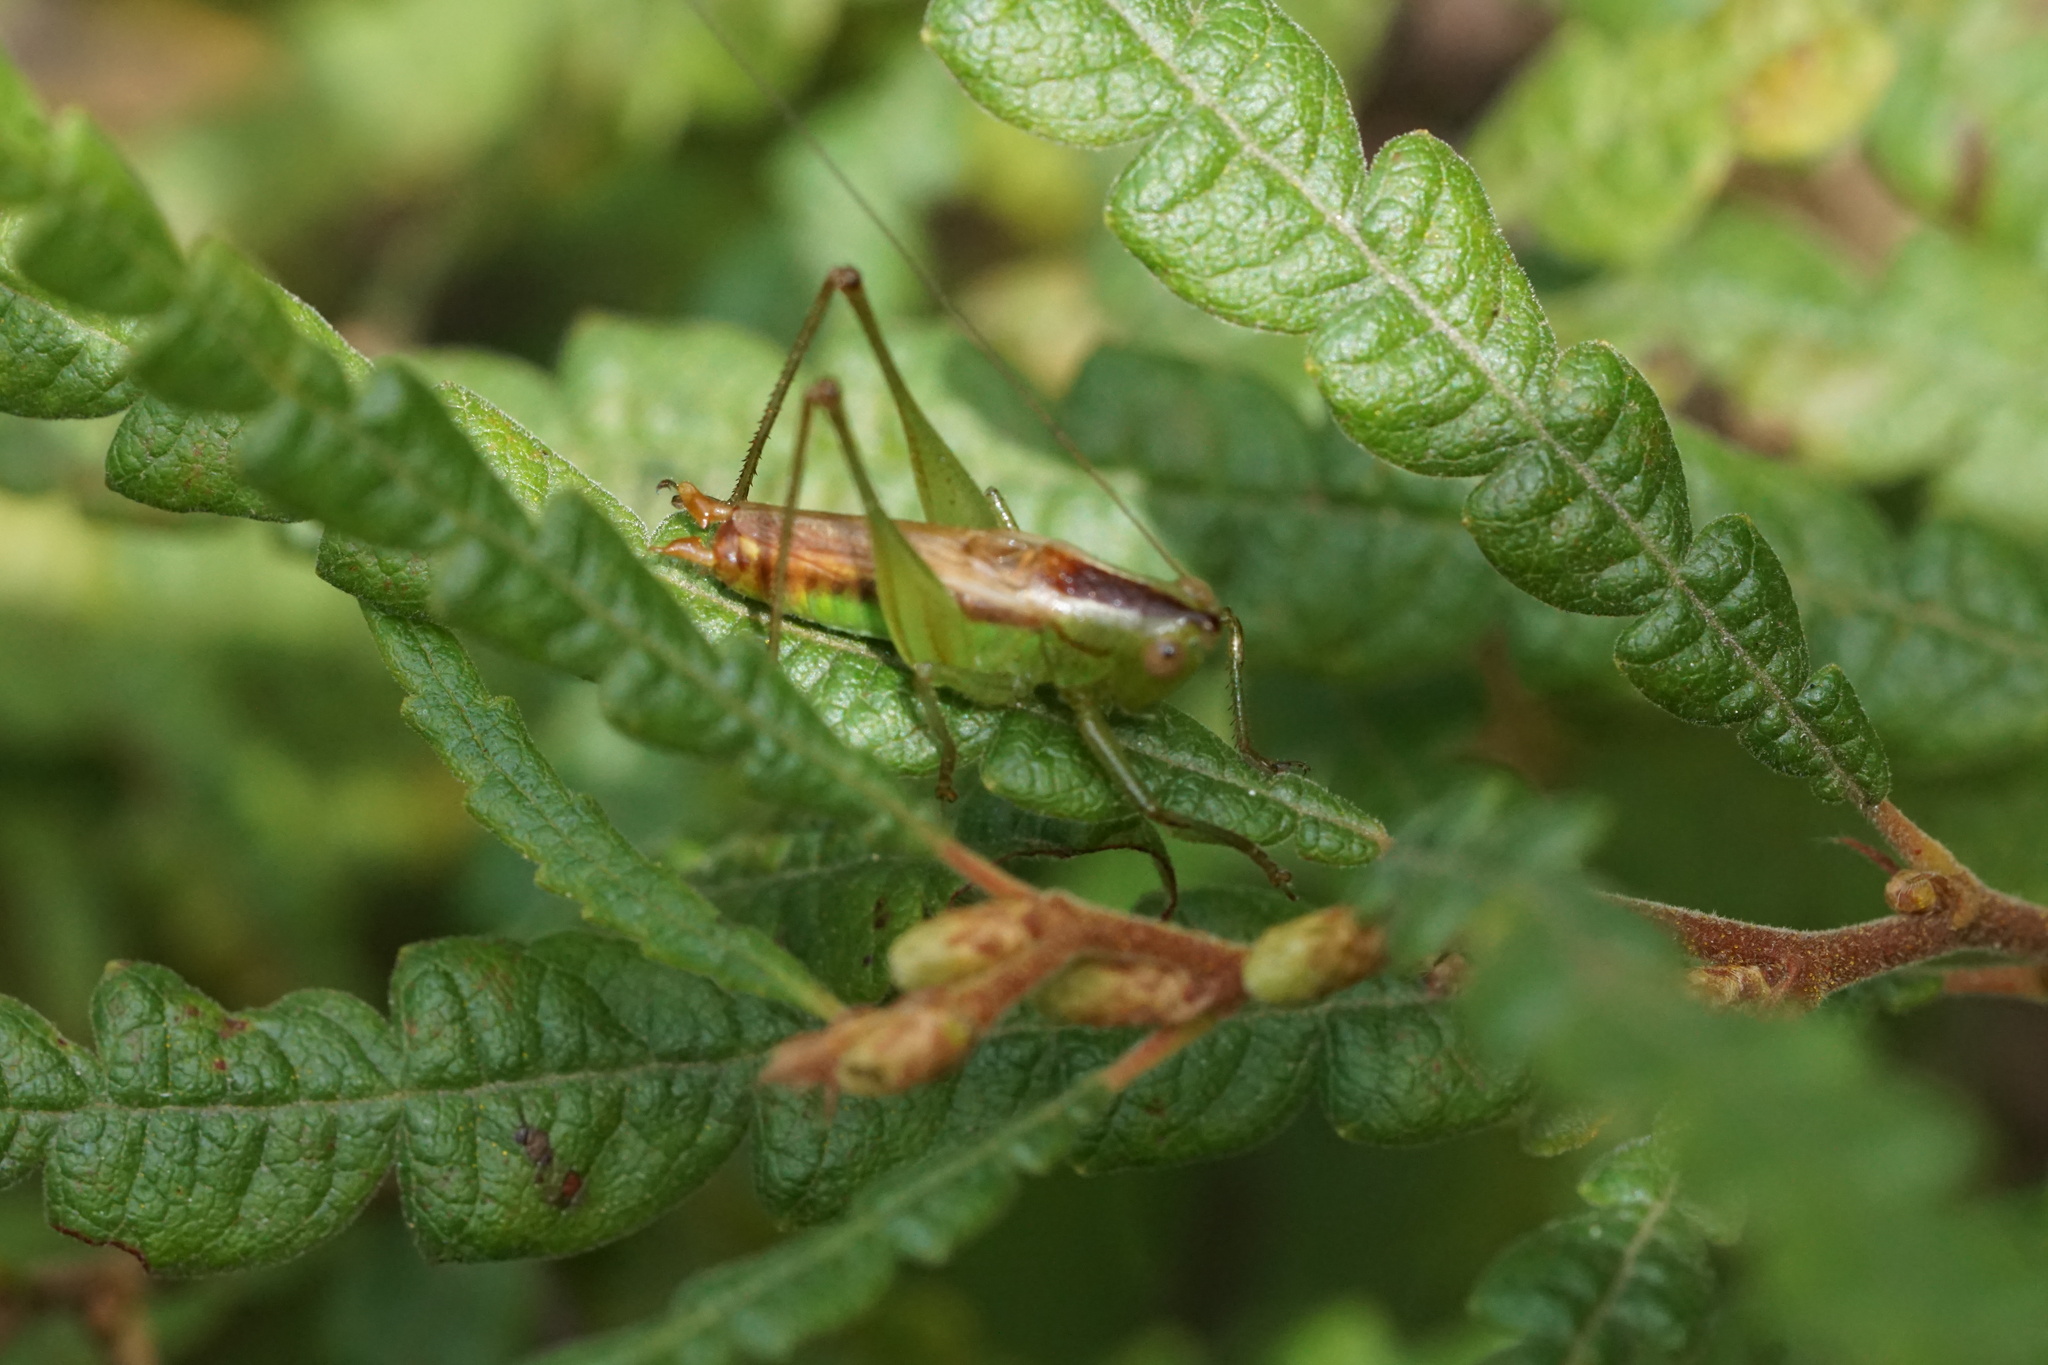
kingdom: Animalia
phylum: Arthropoda
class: Insecta
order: Orthoptera
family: Tettigoniidae
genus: Conocephalus
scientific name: Conocephalus brevipennis
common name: Short-winged meadow katydid
